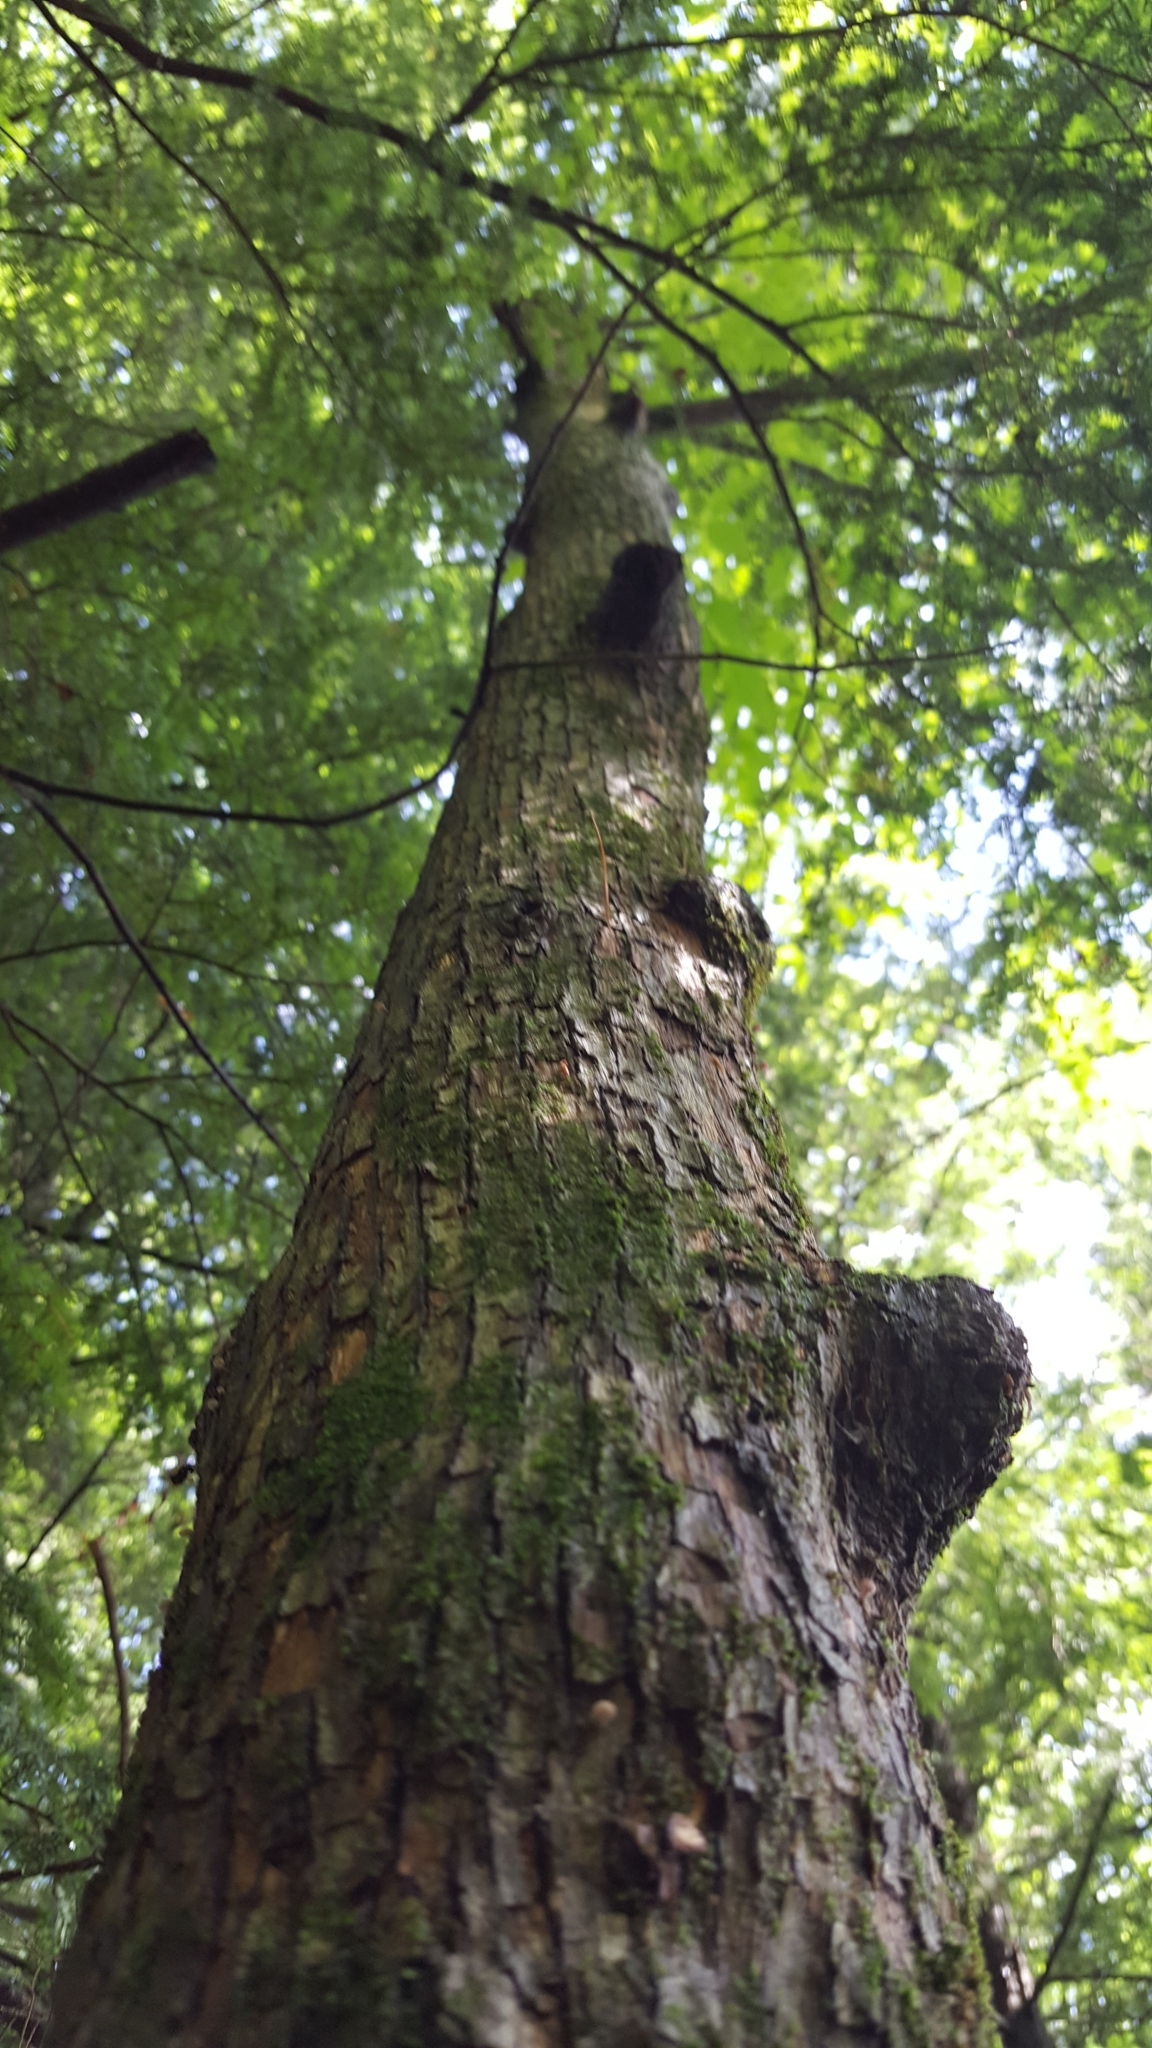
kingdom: Plantae
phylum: Tracheophyta
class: Magnoliopsida
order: Fagales
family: Betulaceae
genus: Ostrya
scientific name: Ostrya virginiana
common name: Ironwood
